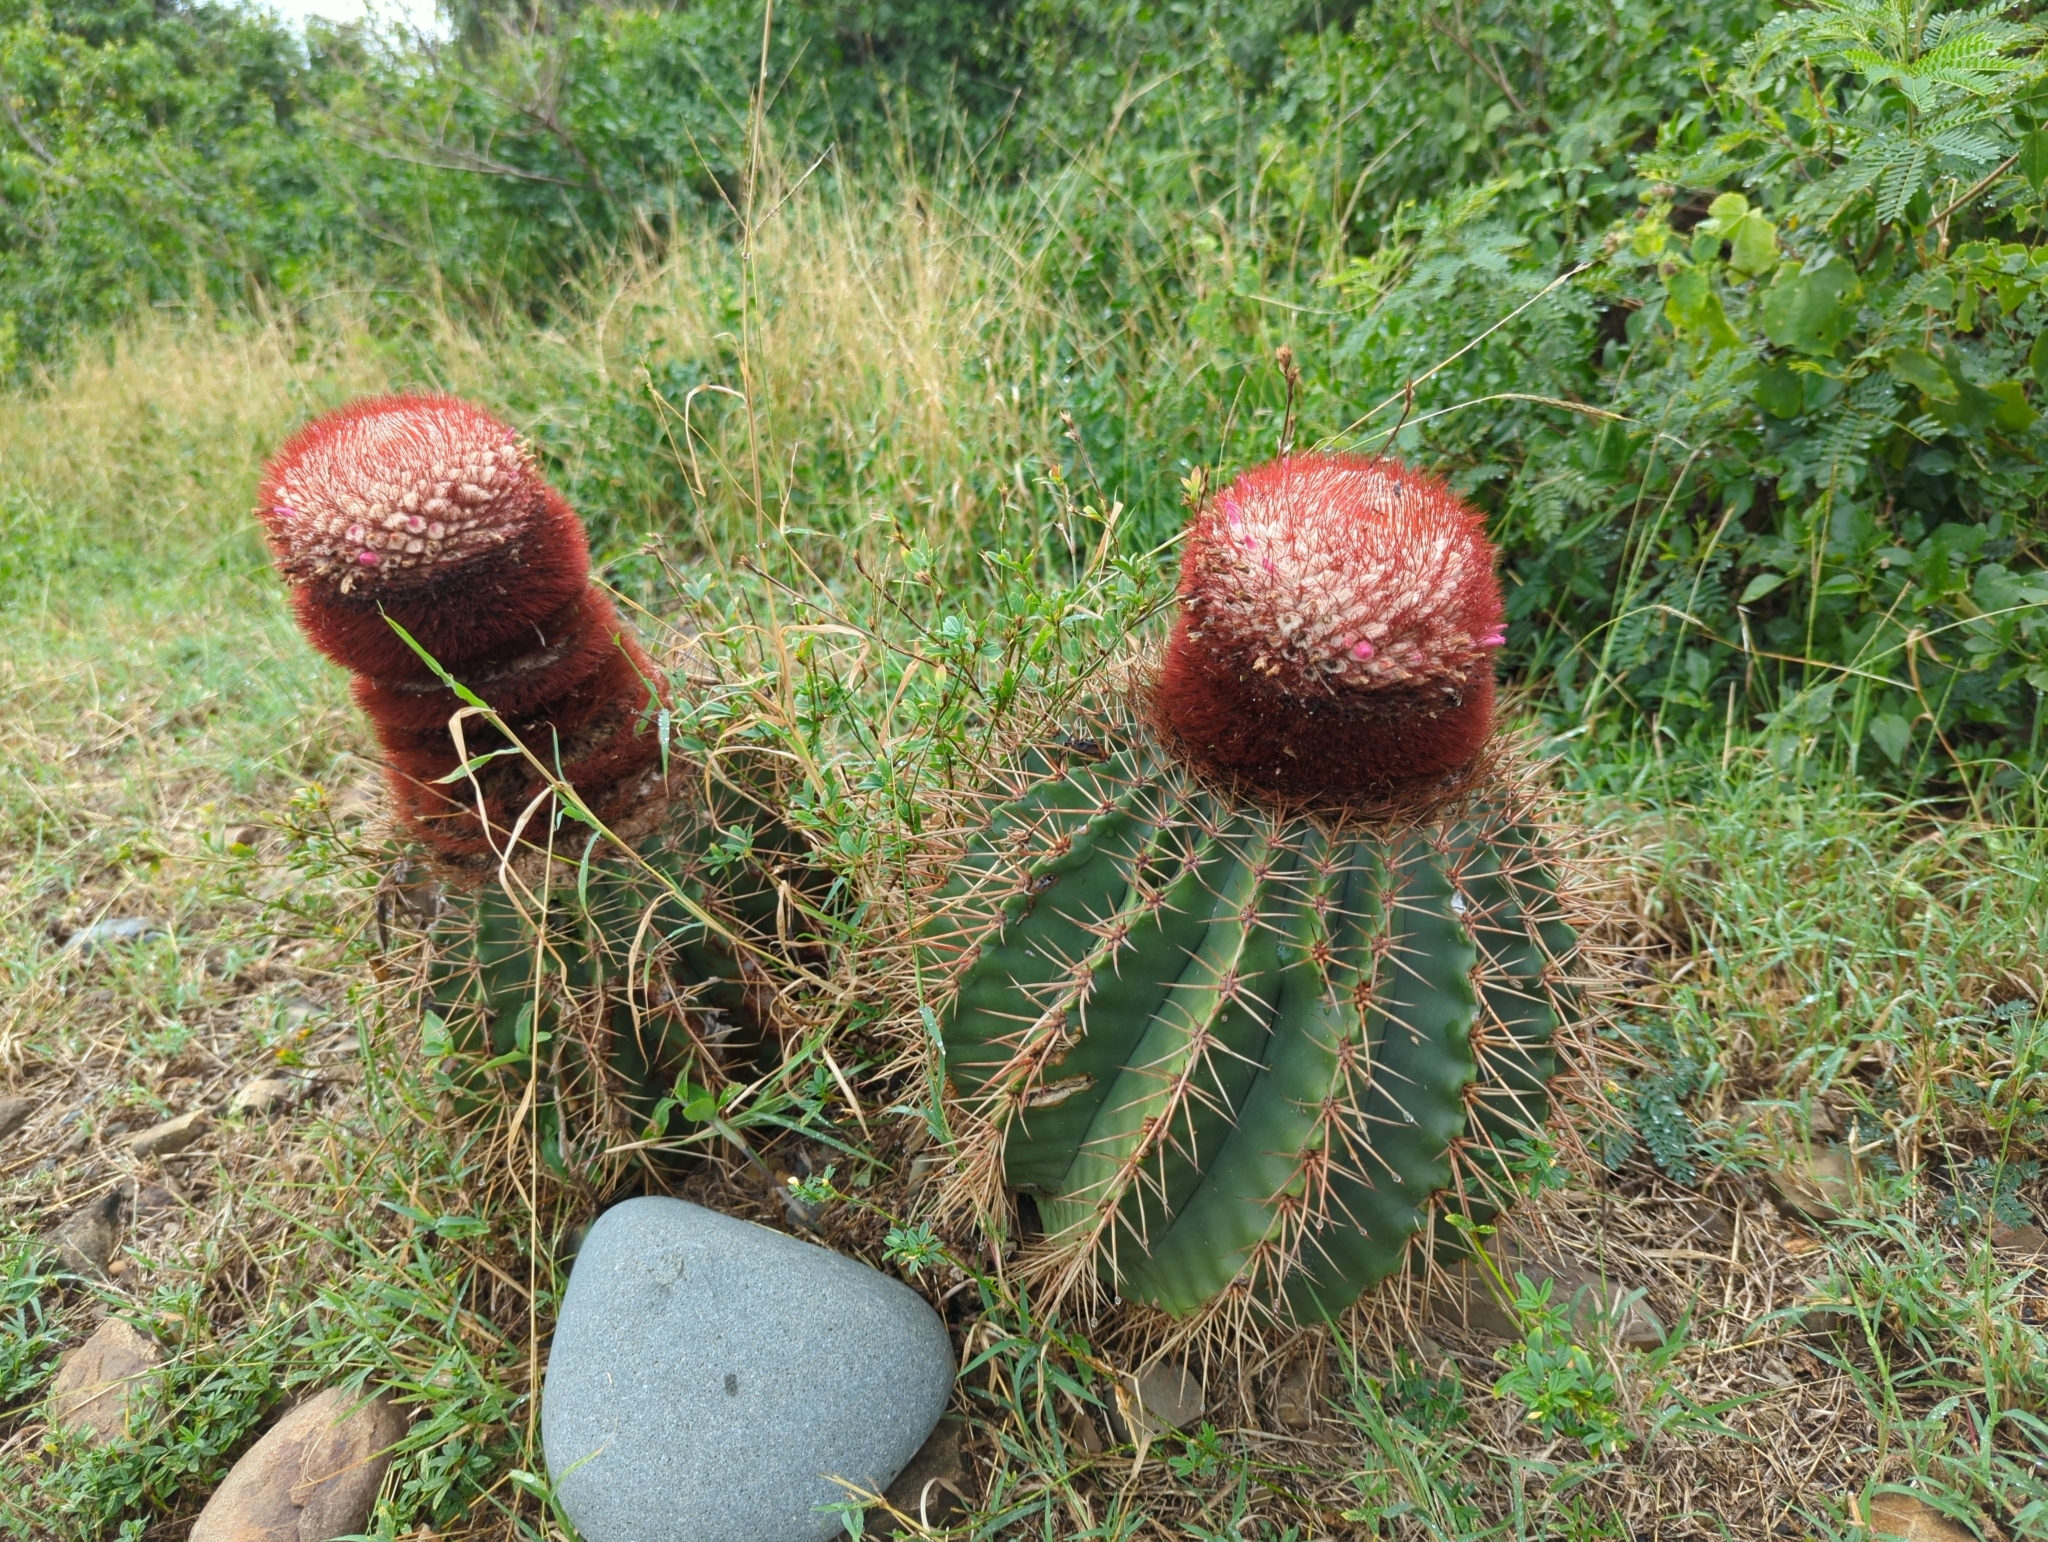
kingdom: Plantae
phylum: Tracheophyta
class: Magnoliopsida
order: Caryophyllales
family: Cactaceae
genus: Melocactus
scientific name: Melocactus intortus
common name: Barrel cactus
